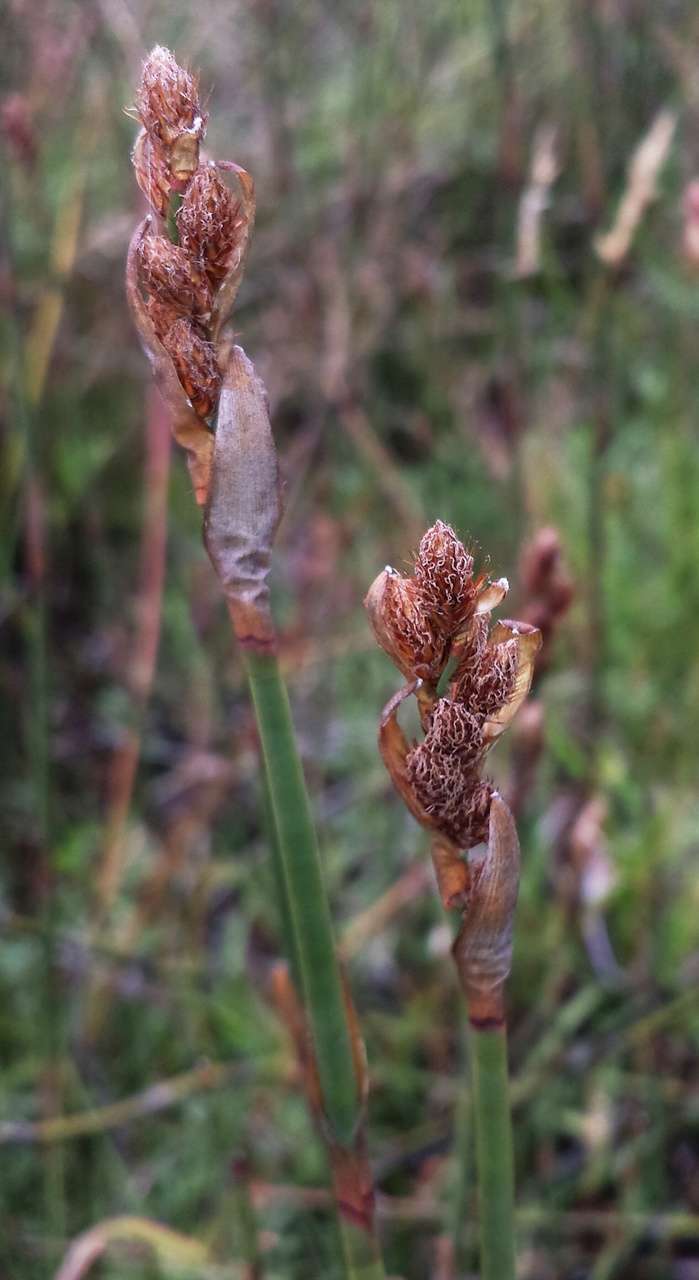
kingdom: Plantae
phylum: Tracheophyta
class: Liliopsida
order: Poales
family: Restionaceae
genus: Baloskion
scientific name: Baloskion australe
